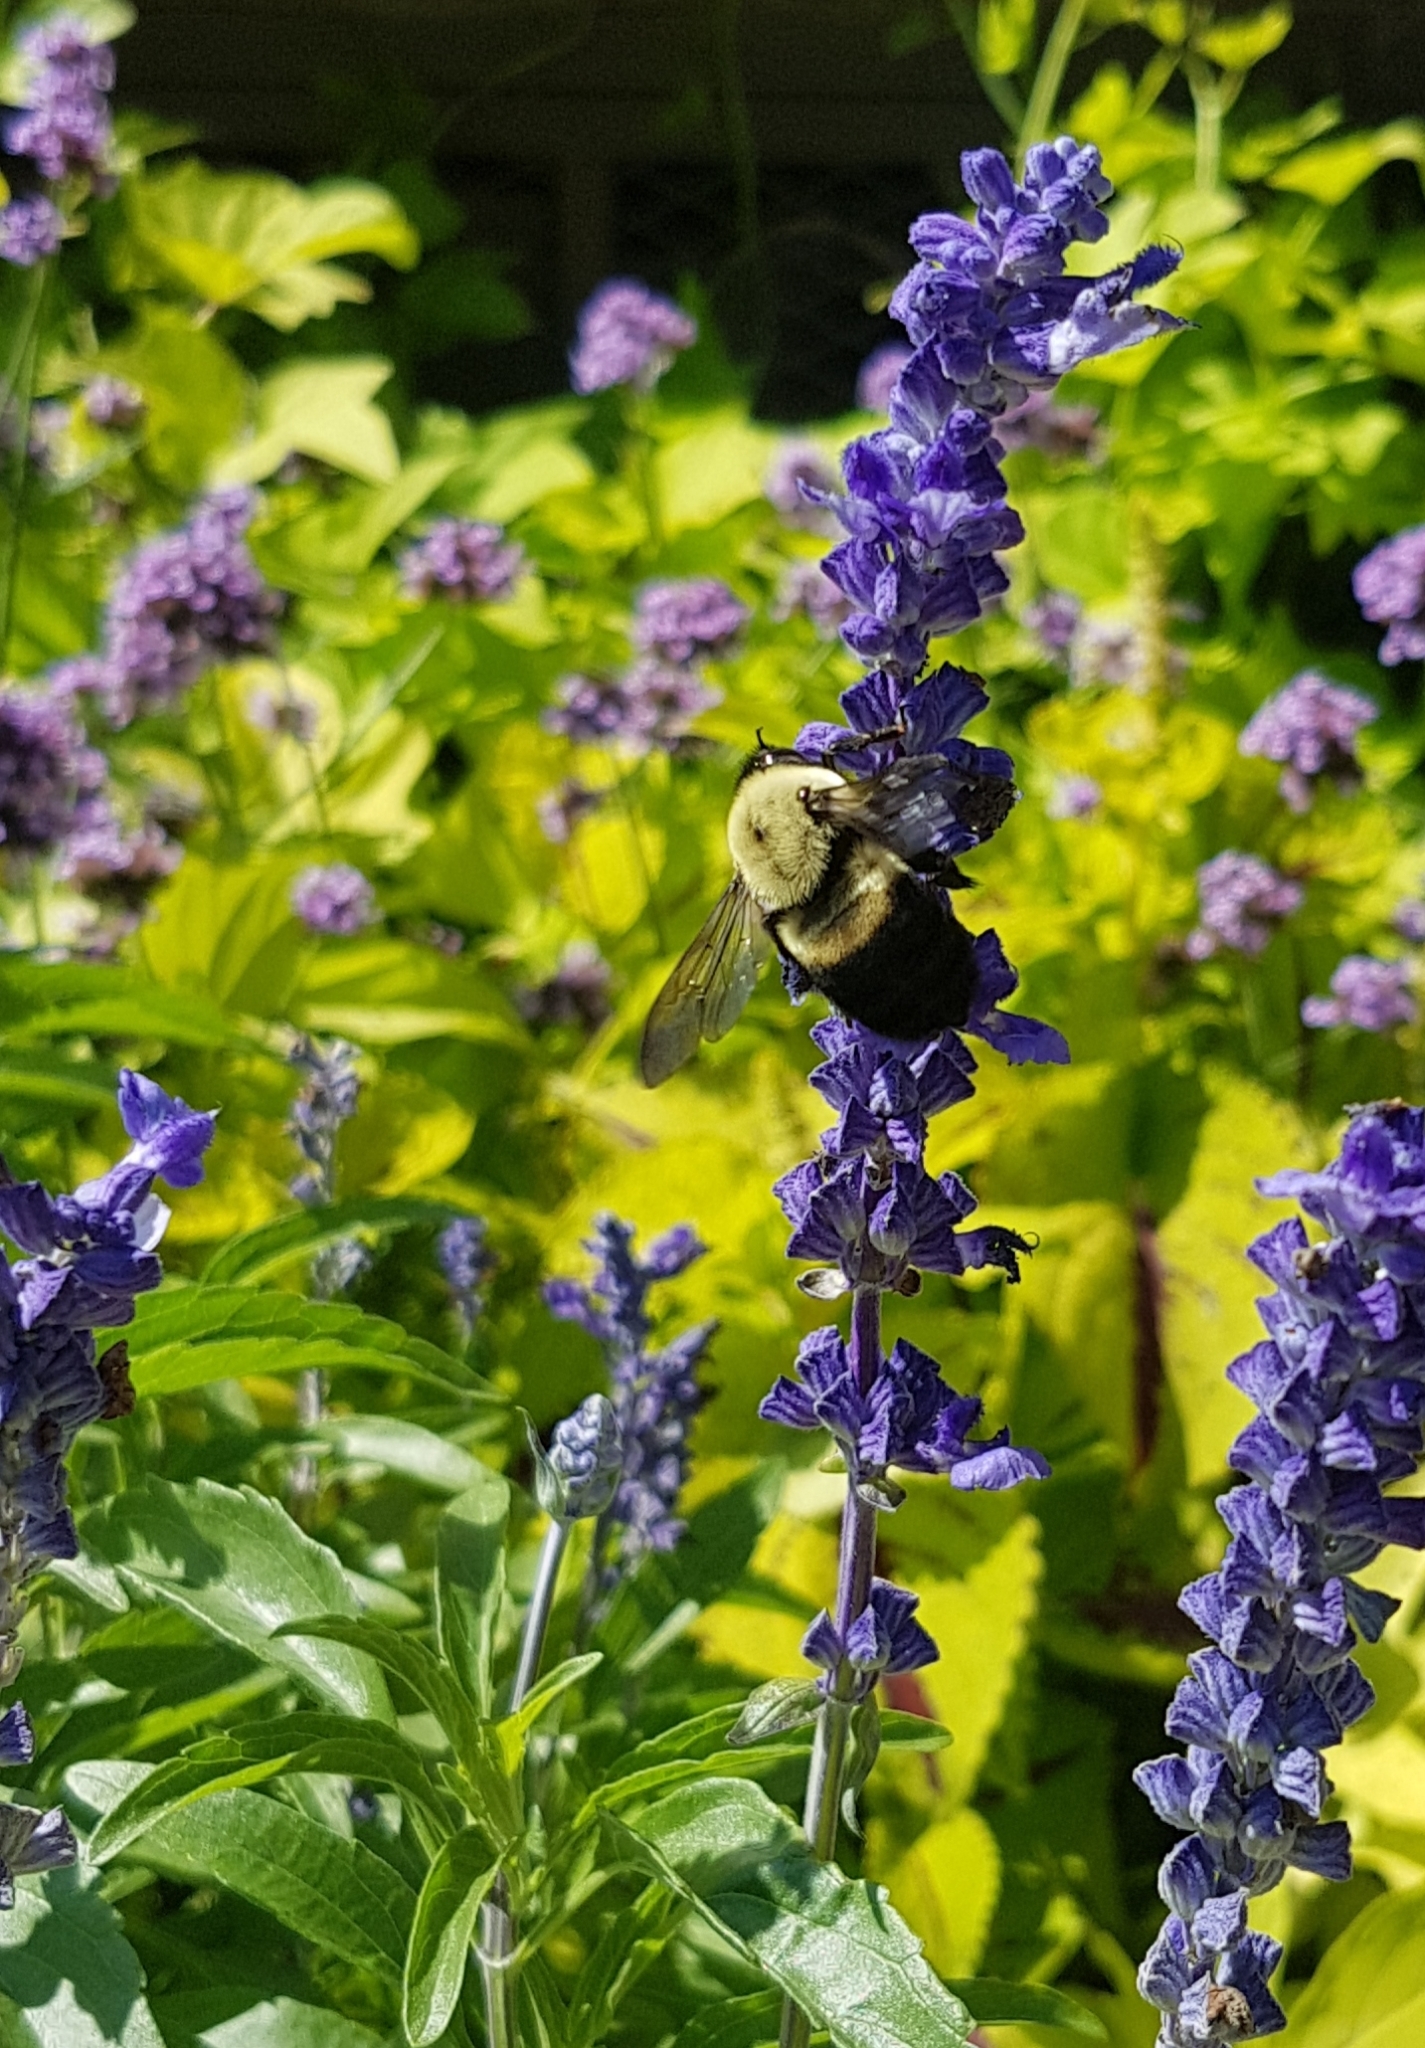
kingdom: Animalia
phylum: Arthropoda
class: Insecta
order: Hymenoptera
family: Apidae
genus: Bombus
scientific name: Bombus griseocollis
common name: Brown-belted bumble bee
